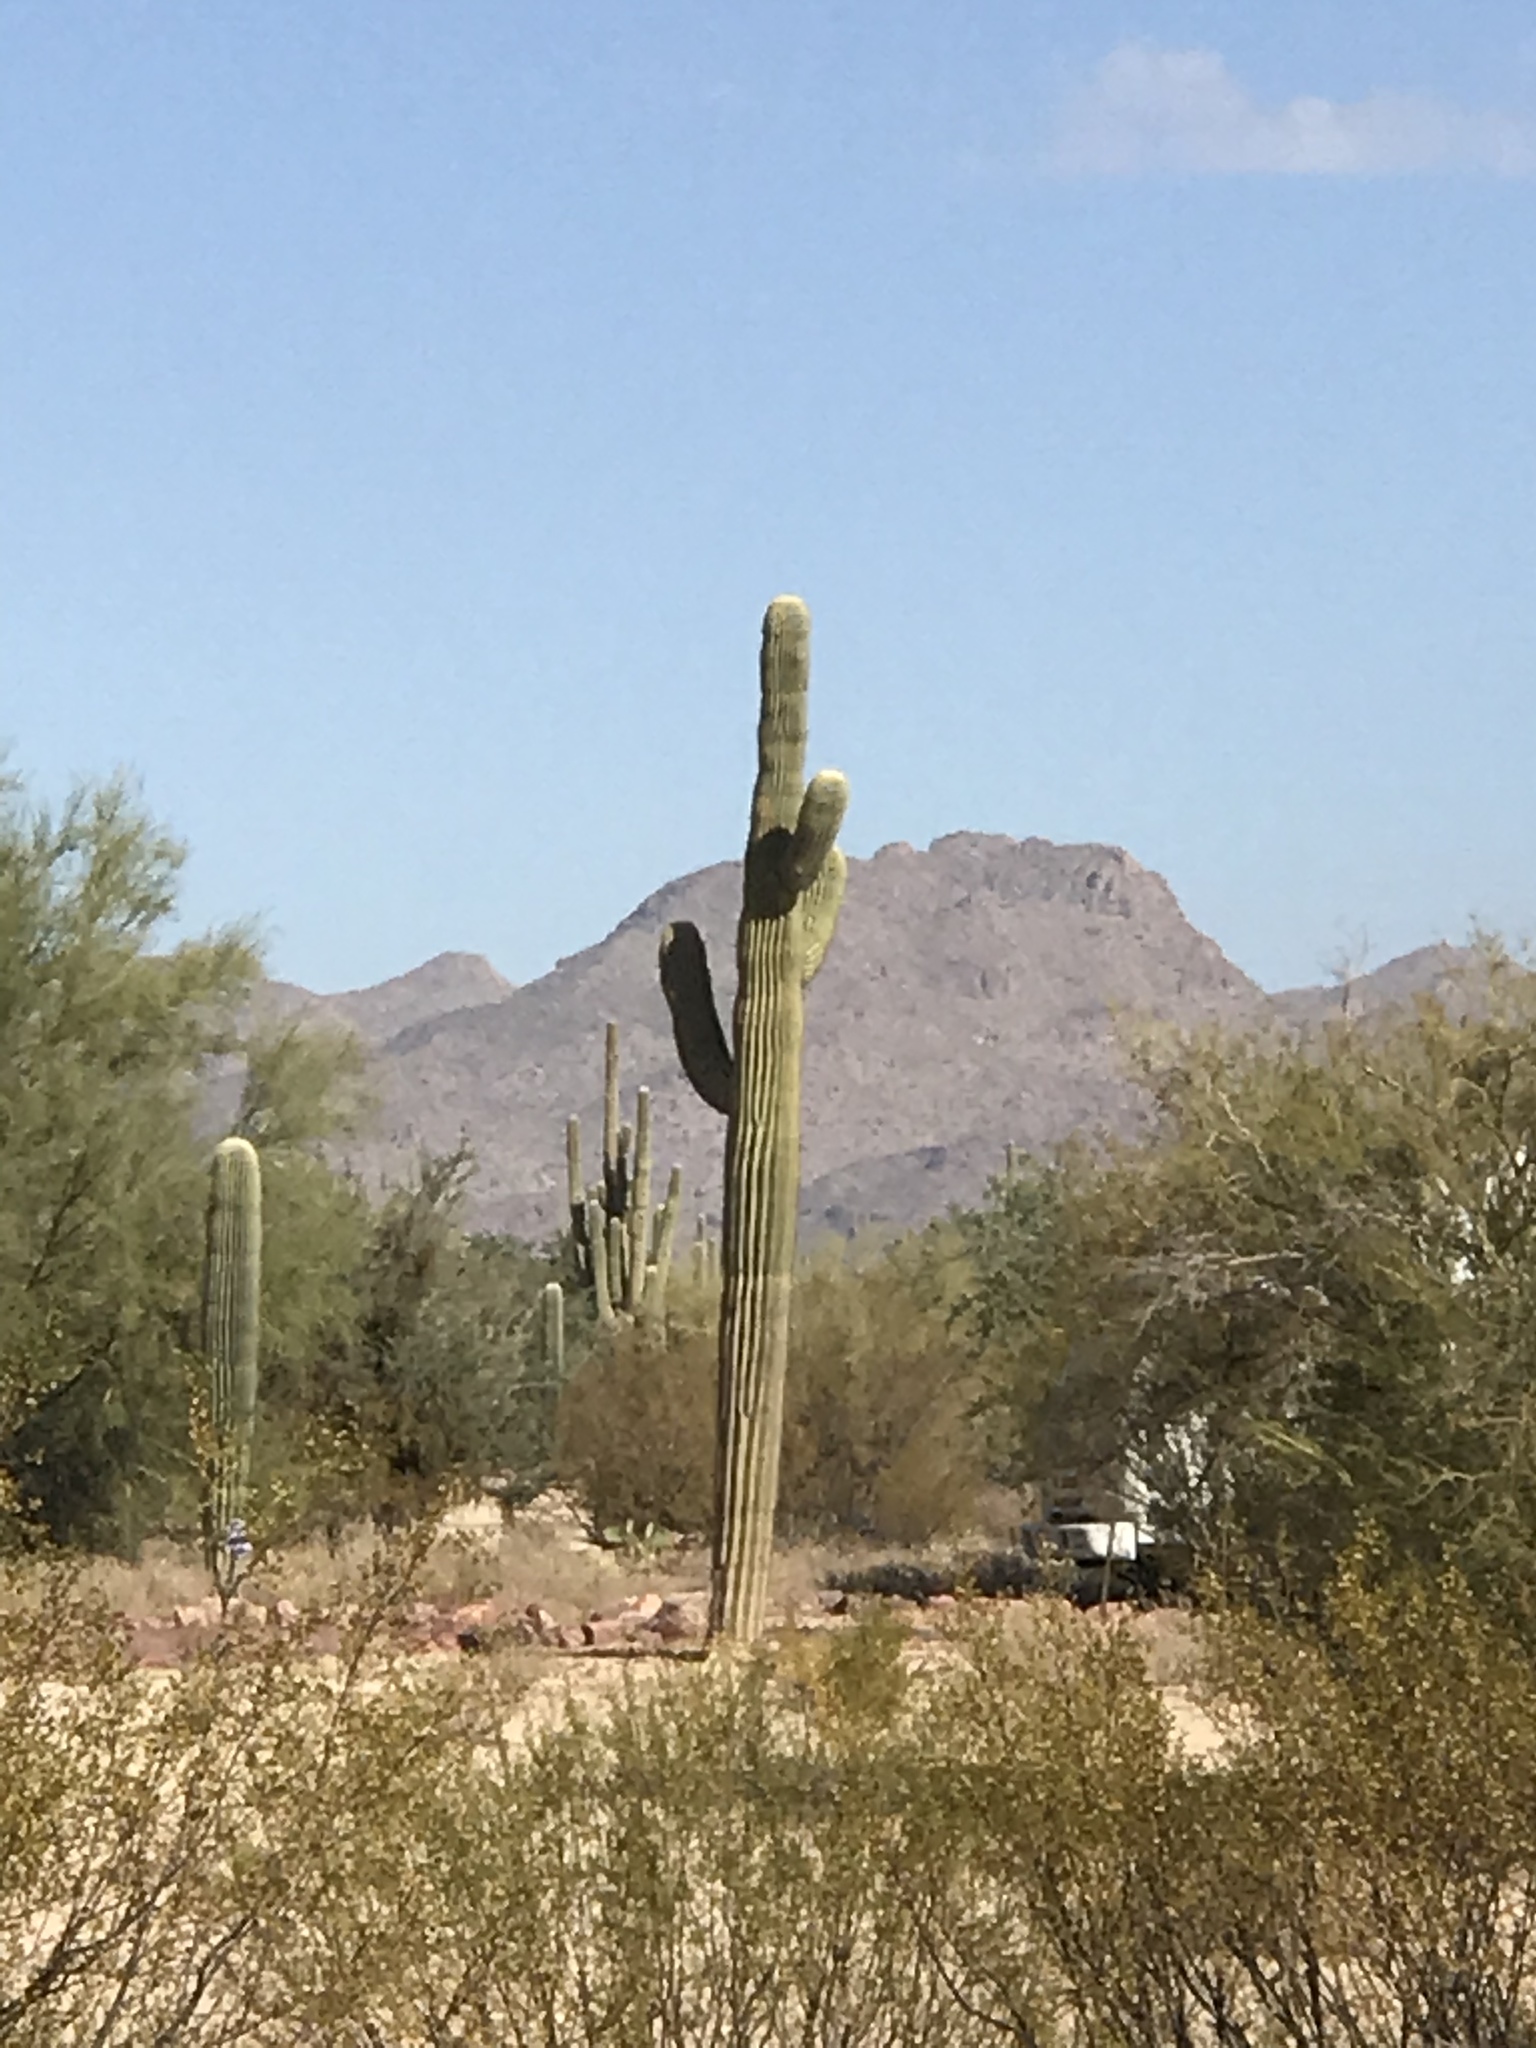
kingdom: Plantae
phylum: Tracheophyta
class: Magnoliopsida
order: Caryophyllales
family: Cactaceae
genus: Carnegiea
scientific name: Carnegiea gigantea
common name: Saguaro
